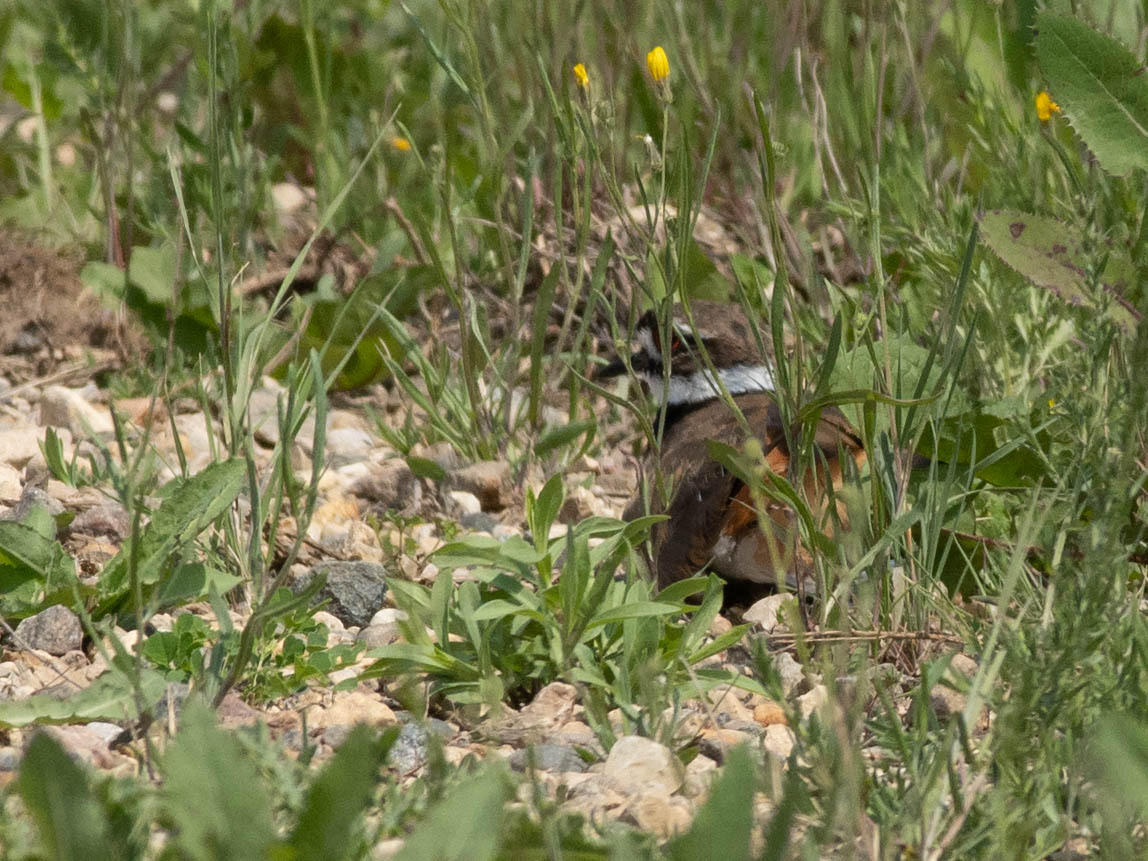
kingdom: Animalia
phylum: Chordata
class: Aves
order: Charadriiformes
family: Charadriidae
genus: Charadrius
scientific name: Charadrius vociferus
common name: Killdeer
